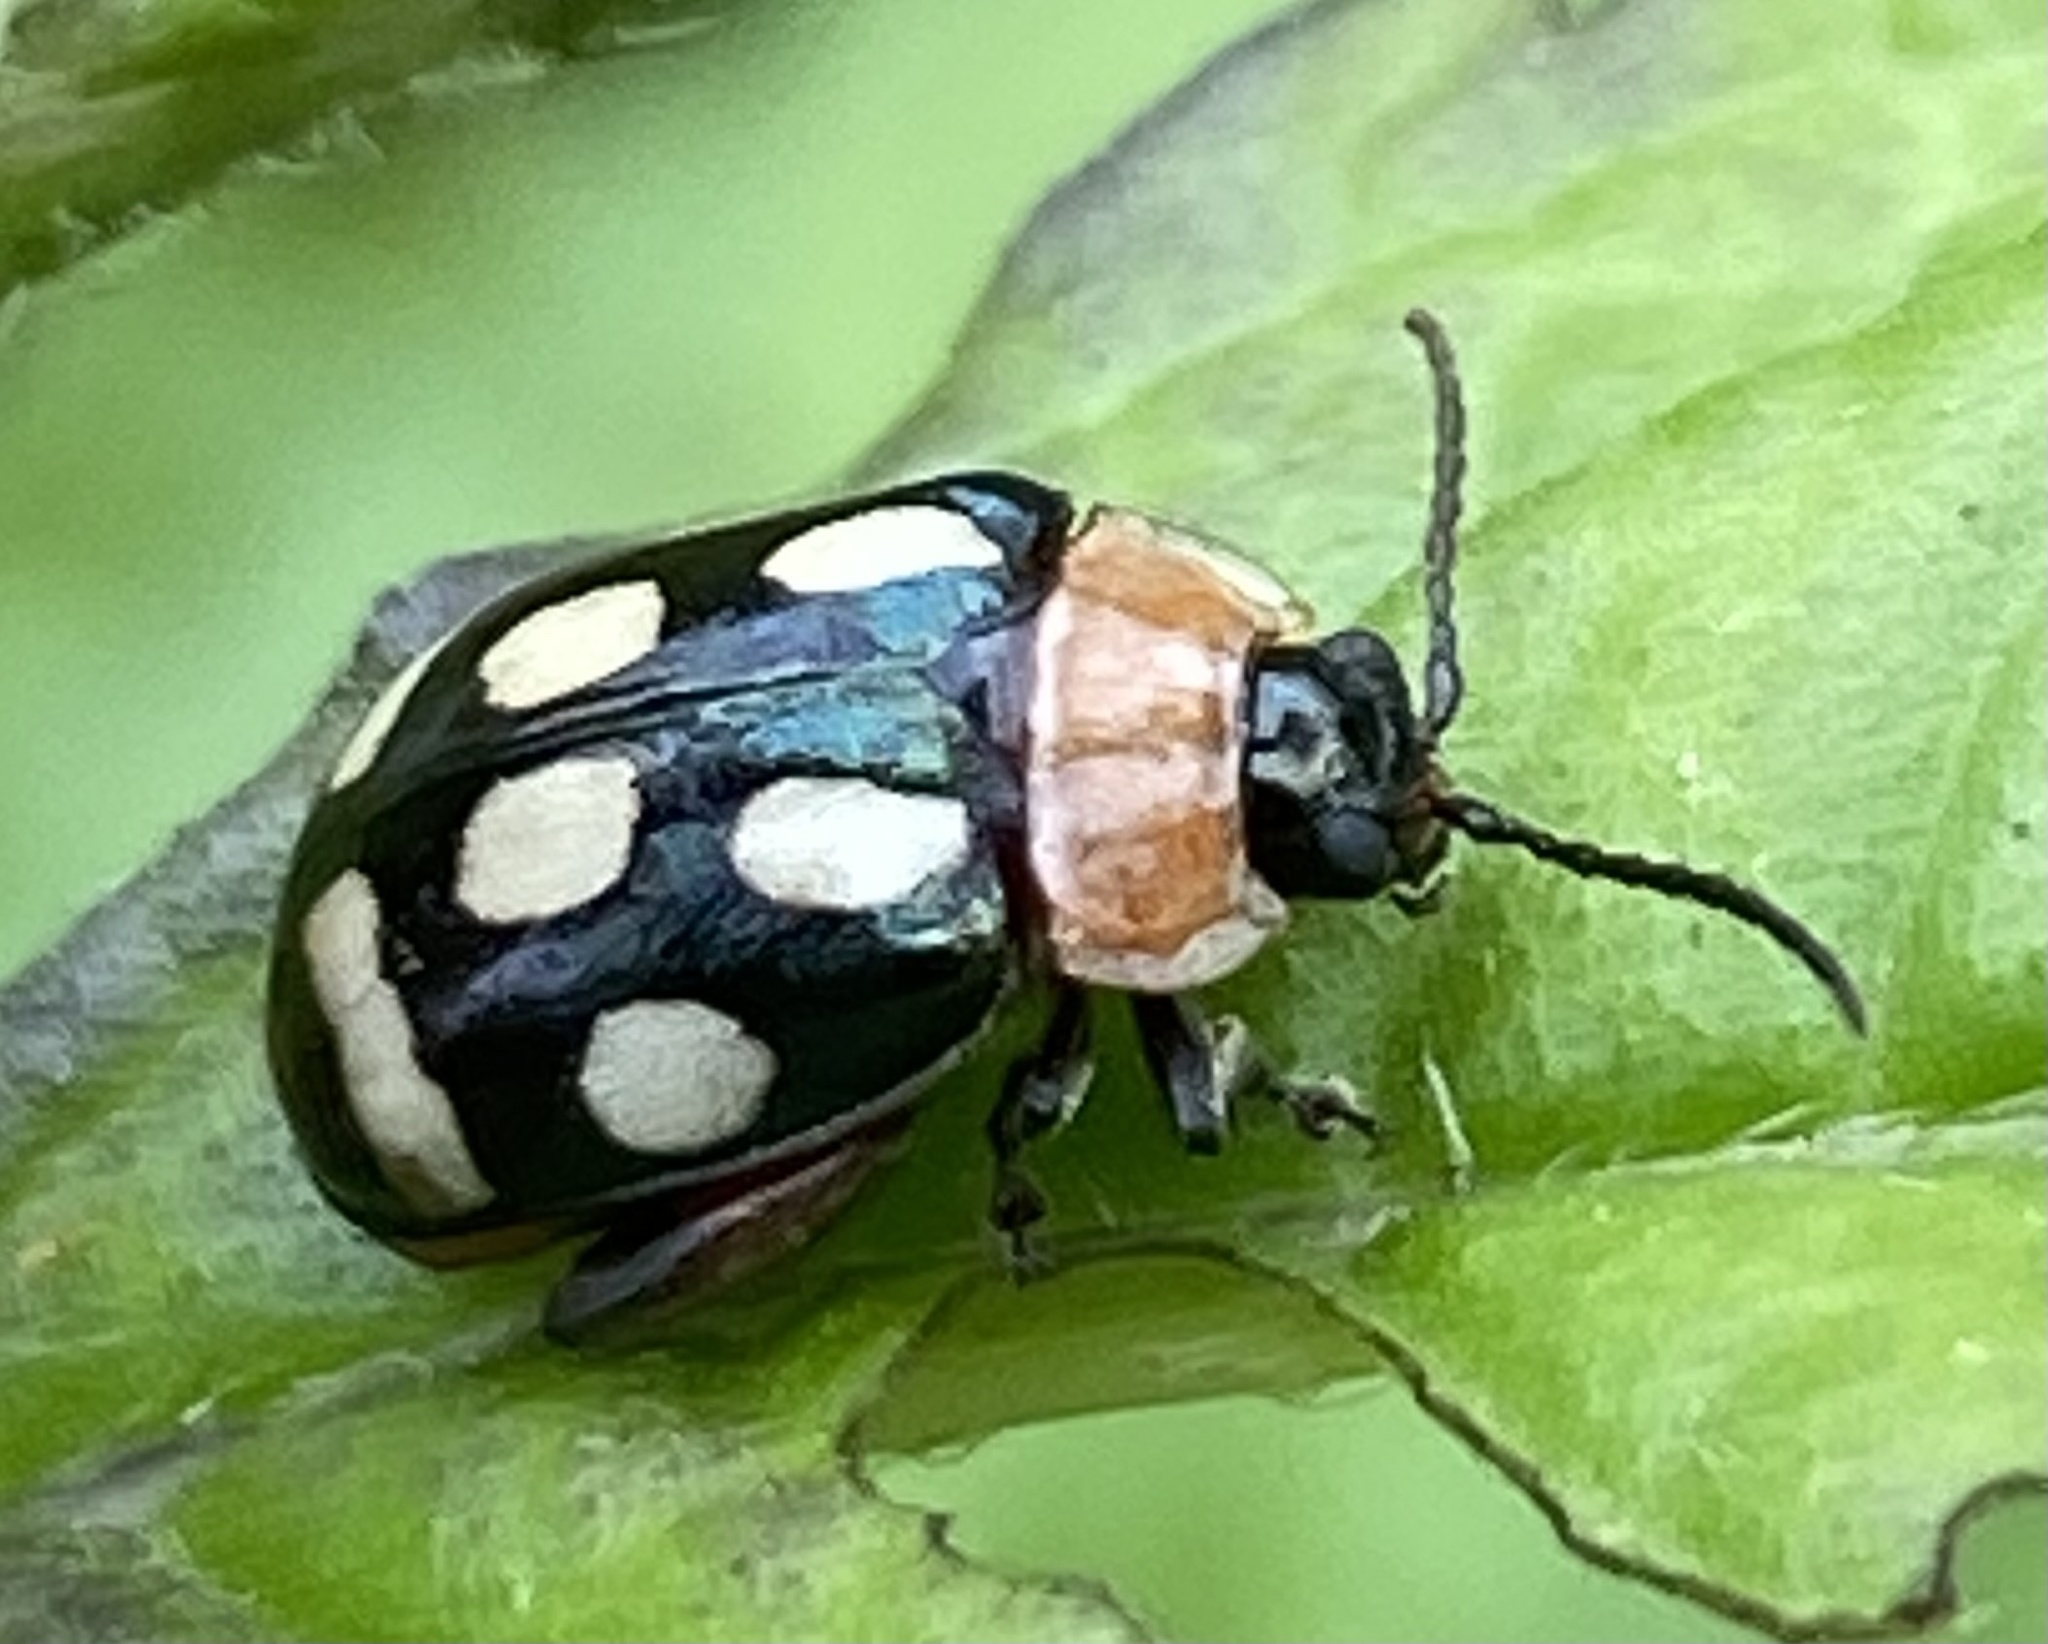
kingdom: Animalia
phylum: Arthropoda
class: Insecta
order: Coleoptera
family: Chrysomelidae
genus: Alagoasa
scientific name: Alagoasa
